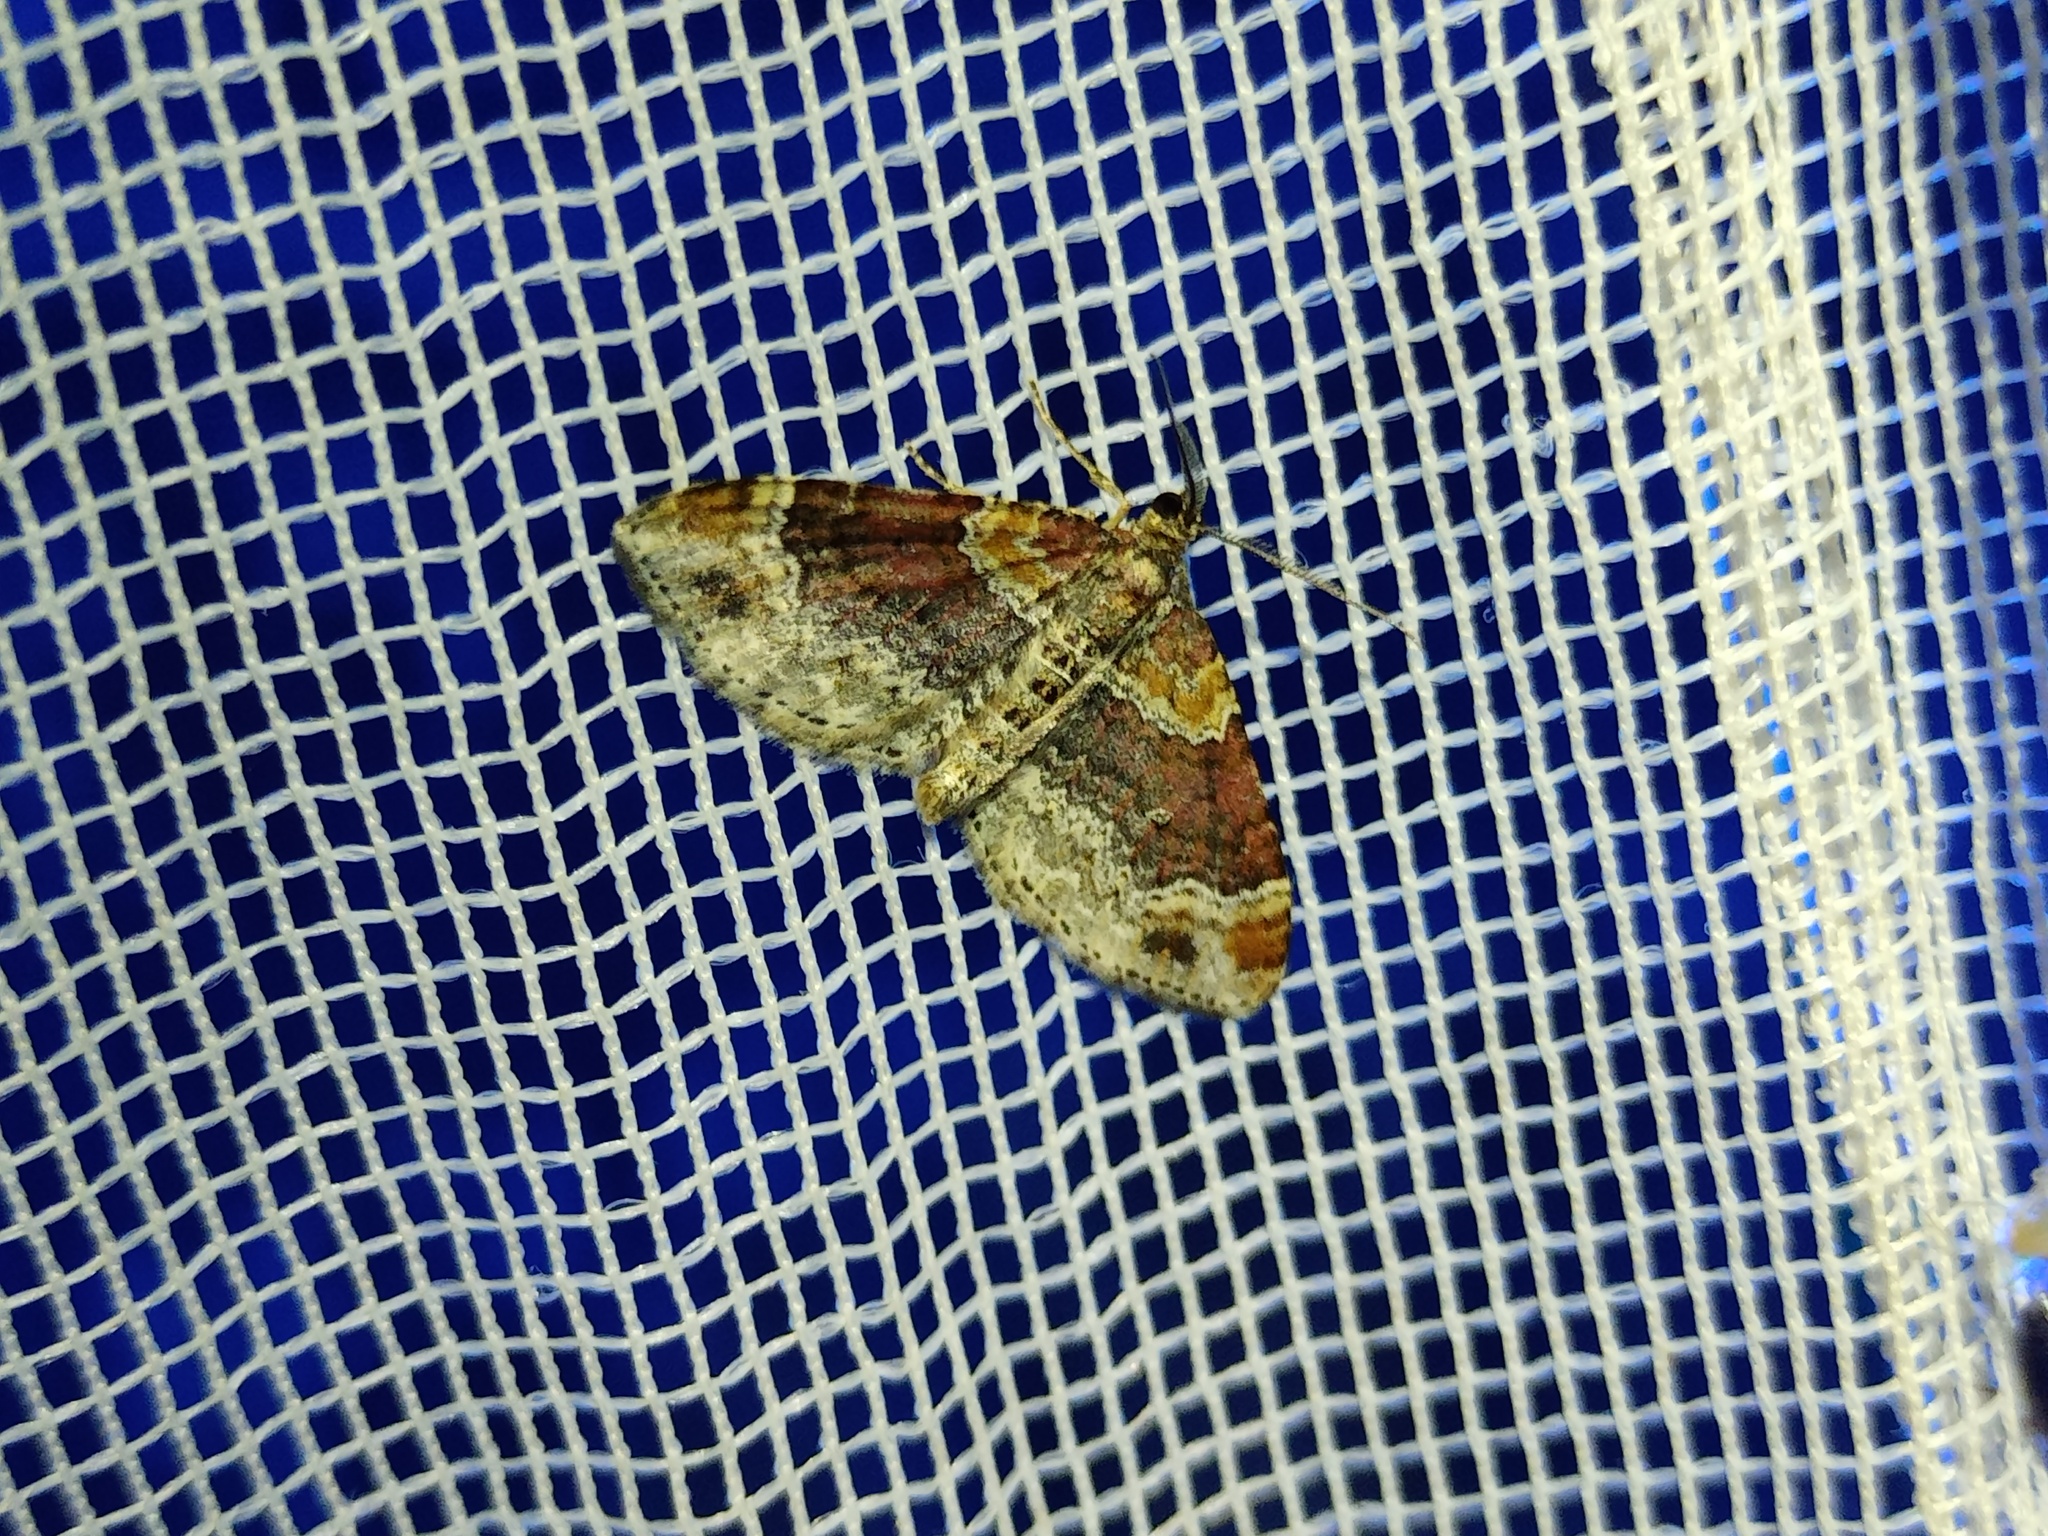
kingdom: Animalia
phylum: Arthropoda
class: Insecta
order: Lepidoptera
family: Geometridae
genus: Xanthorhoe
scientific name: Xanthorhoe spadicearia
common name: Red twin-spot carpet
